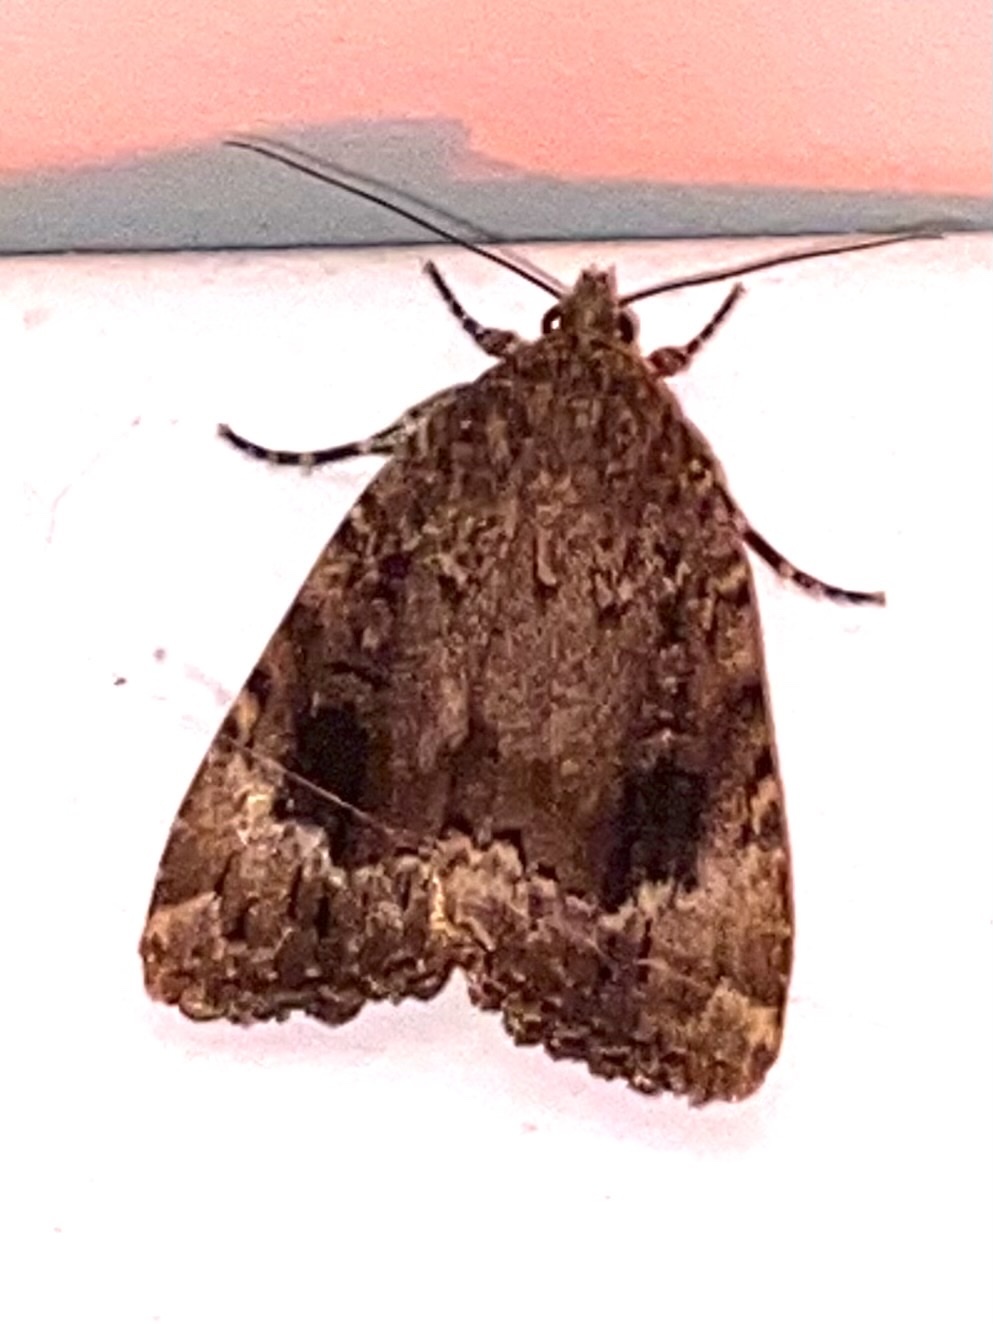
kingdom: Animalia
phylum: Arthropoda
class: Insecta
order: Lepidoptera
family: Noctuidae
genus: Amphipyra
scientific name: Amphipyra pyramidoides
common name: American copper underwing
